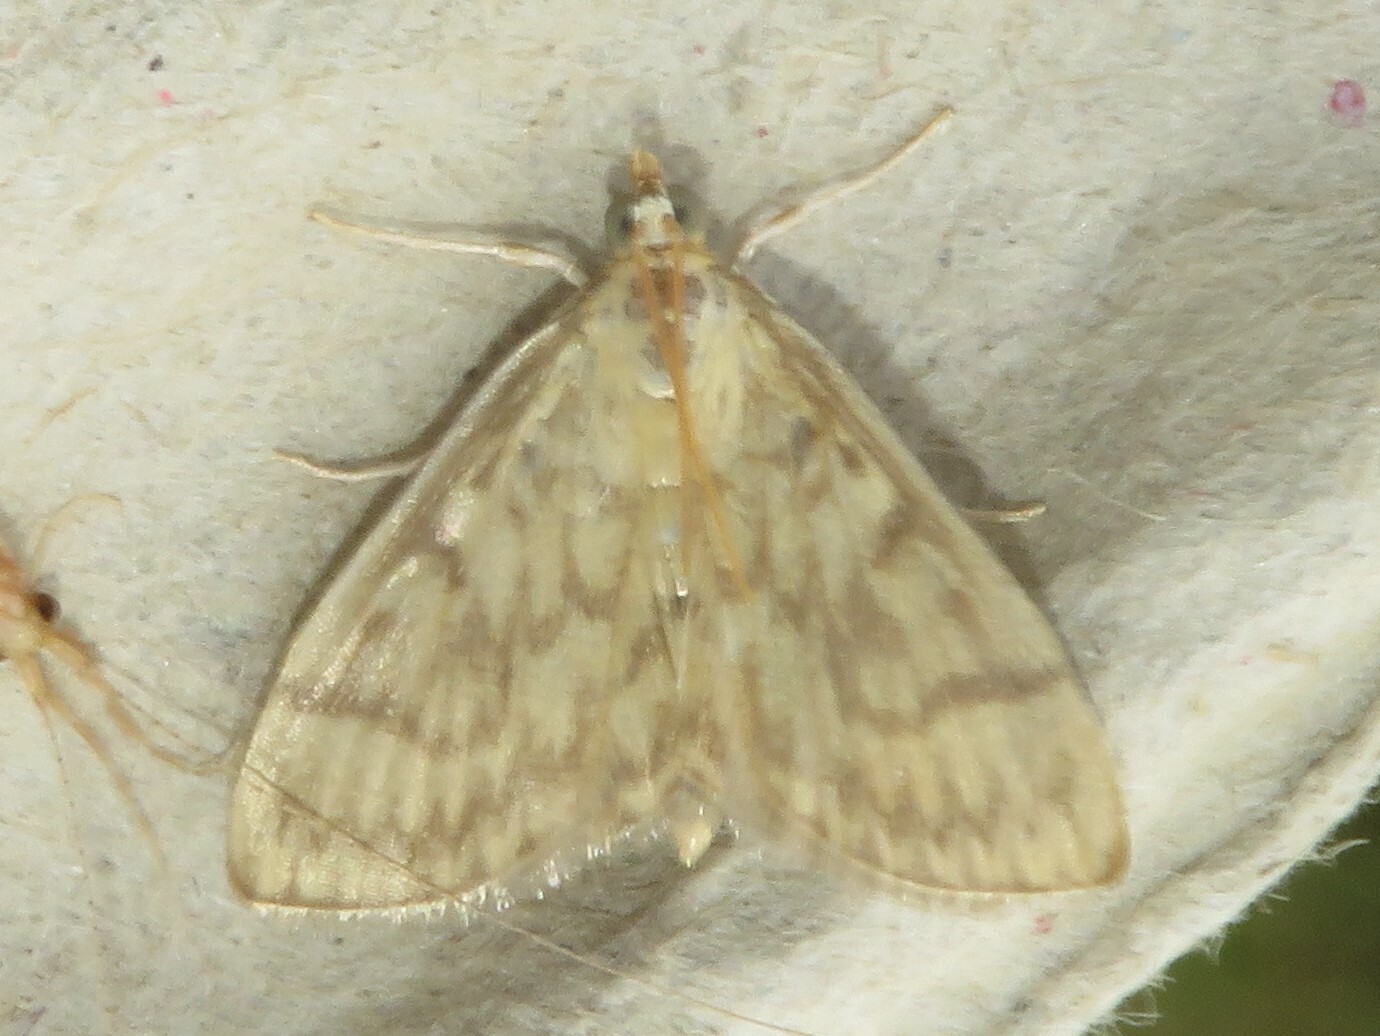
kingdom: Animalia
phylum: Arthropoda
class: Insecta
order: Lepidoptera
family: Crambidae
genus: Crocidophora
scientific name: Crocidophora serratissimalis
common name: Saw-toothed crocidophora moth
